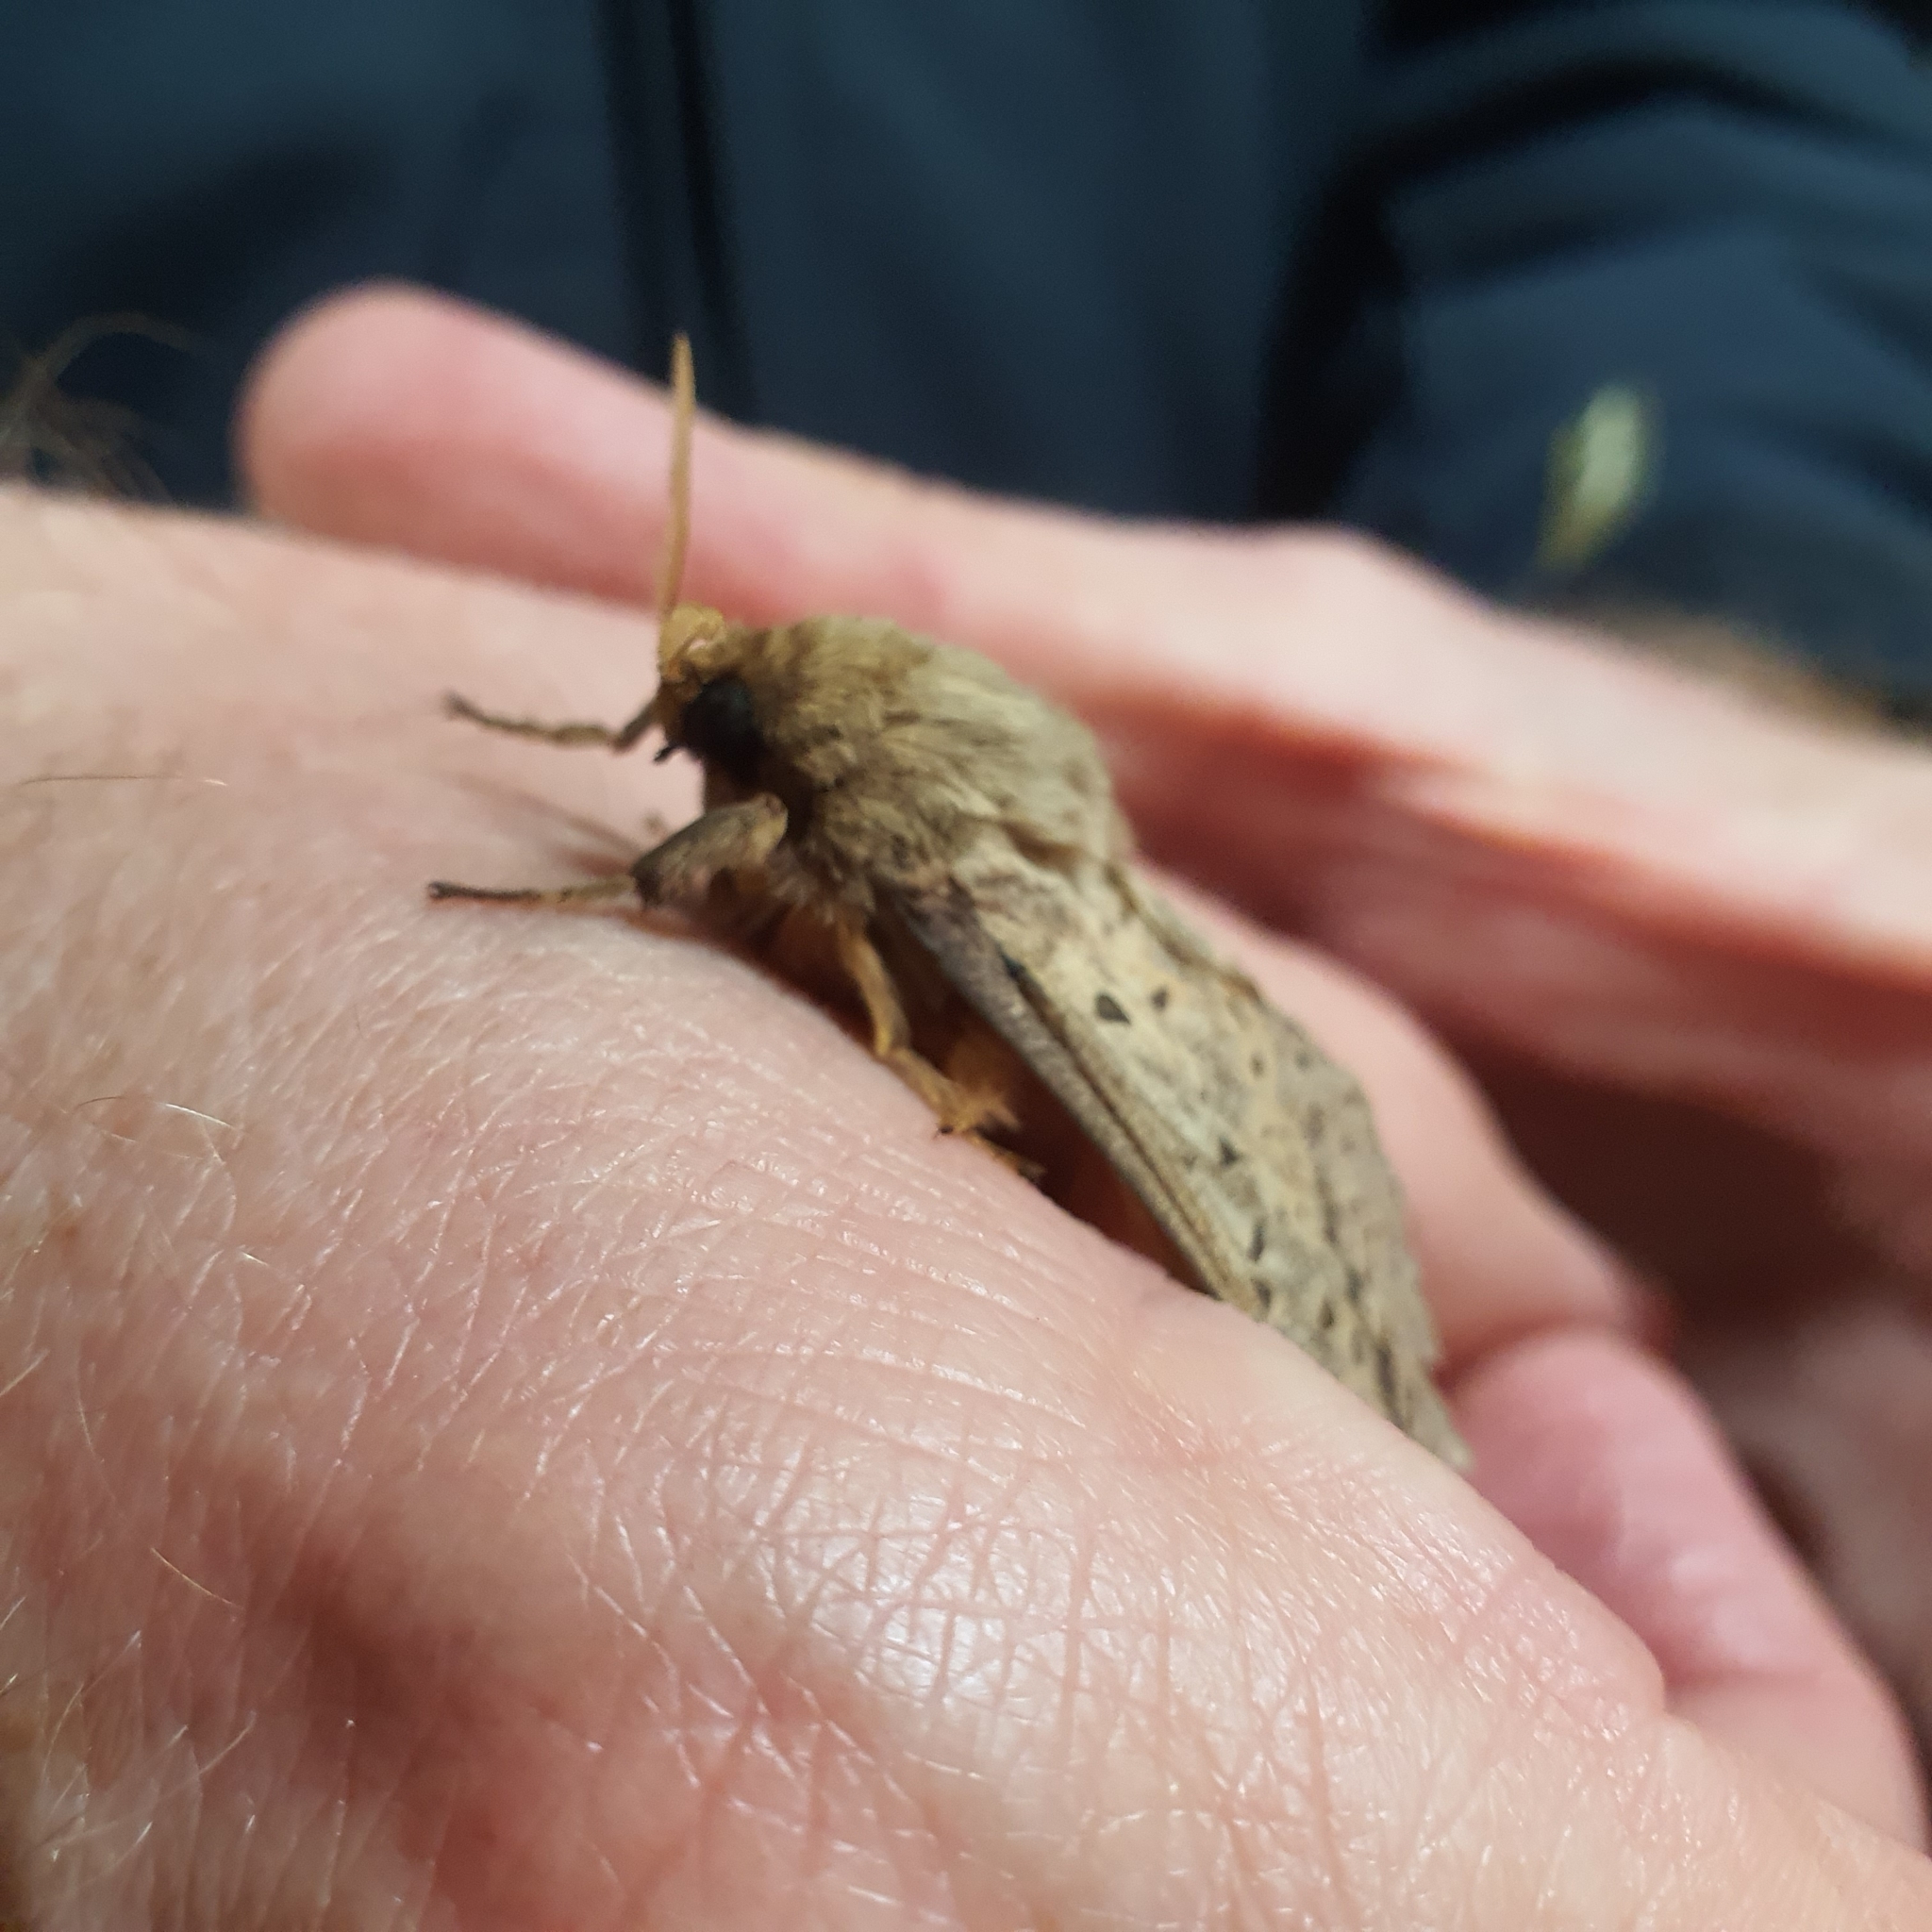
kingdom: Animalia
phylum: Arthropoda
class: Insecta
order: Lepidoptera
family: Hepialidae
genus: Oxycanus
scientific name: Oxycanus silvanus
